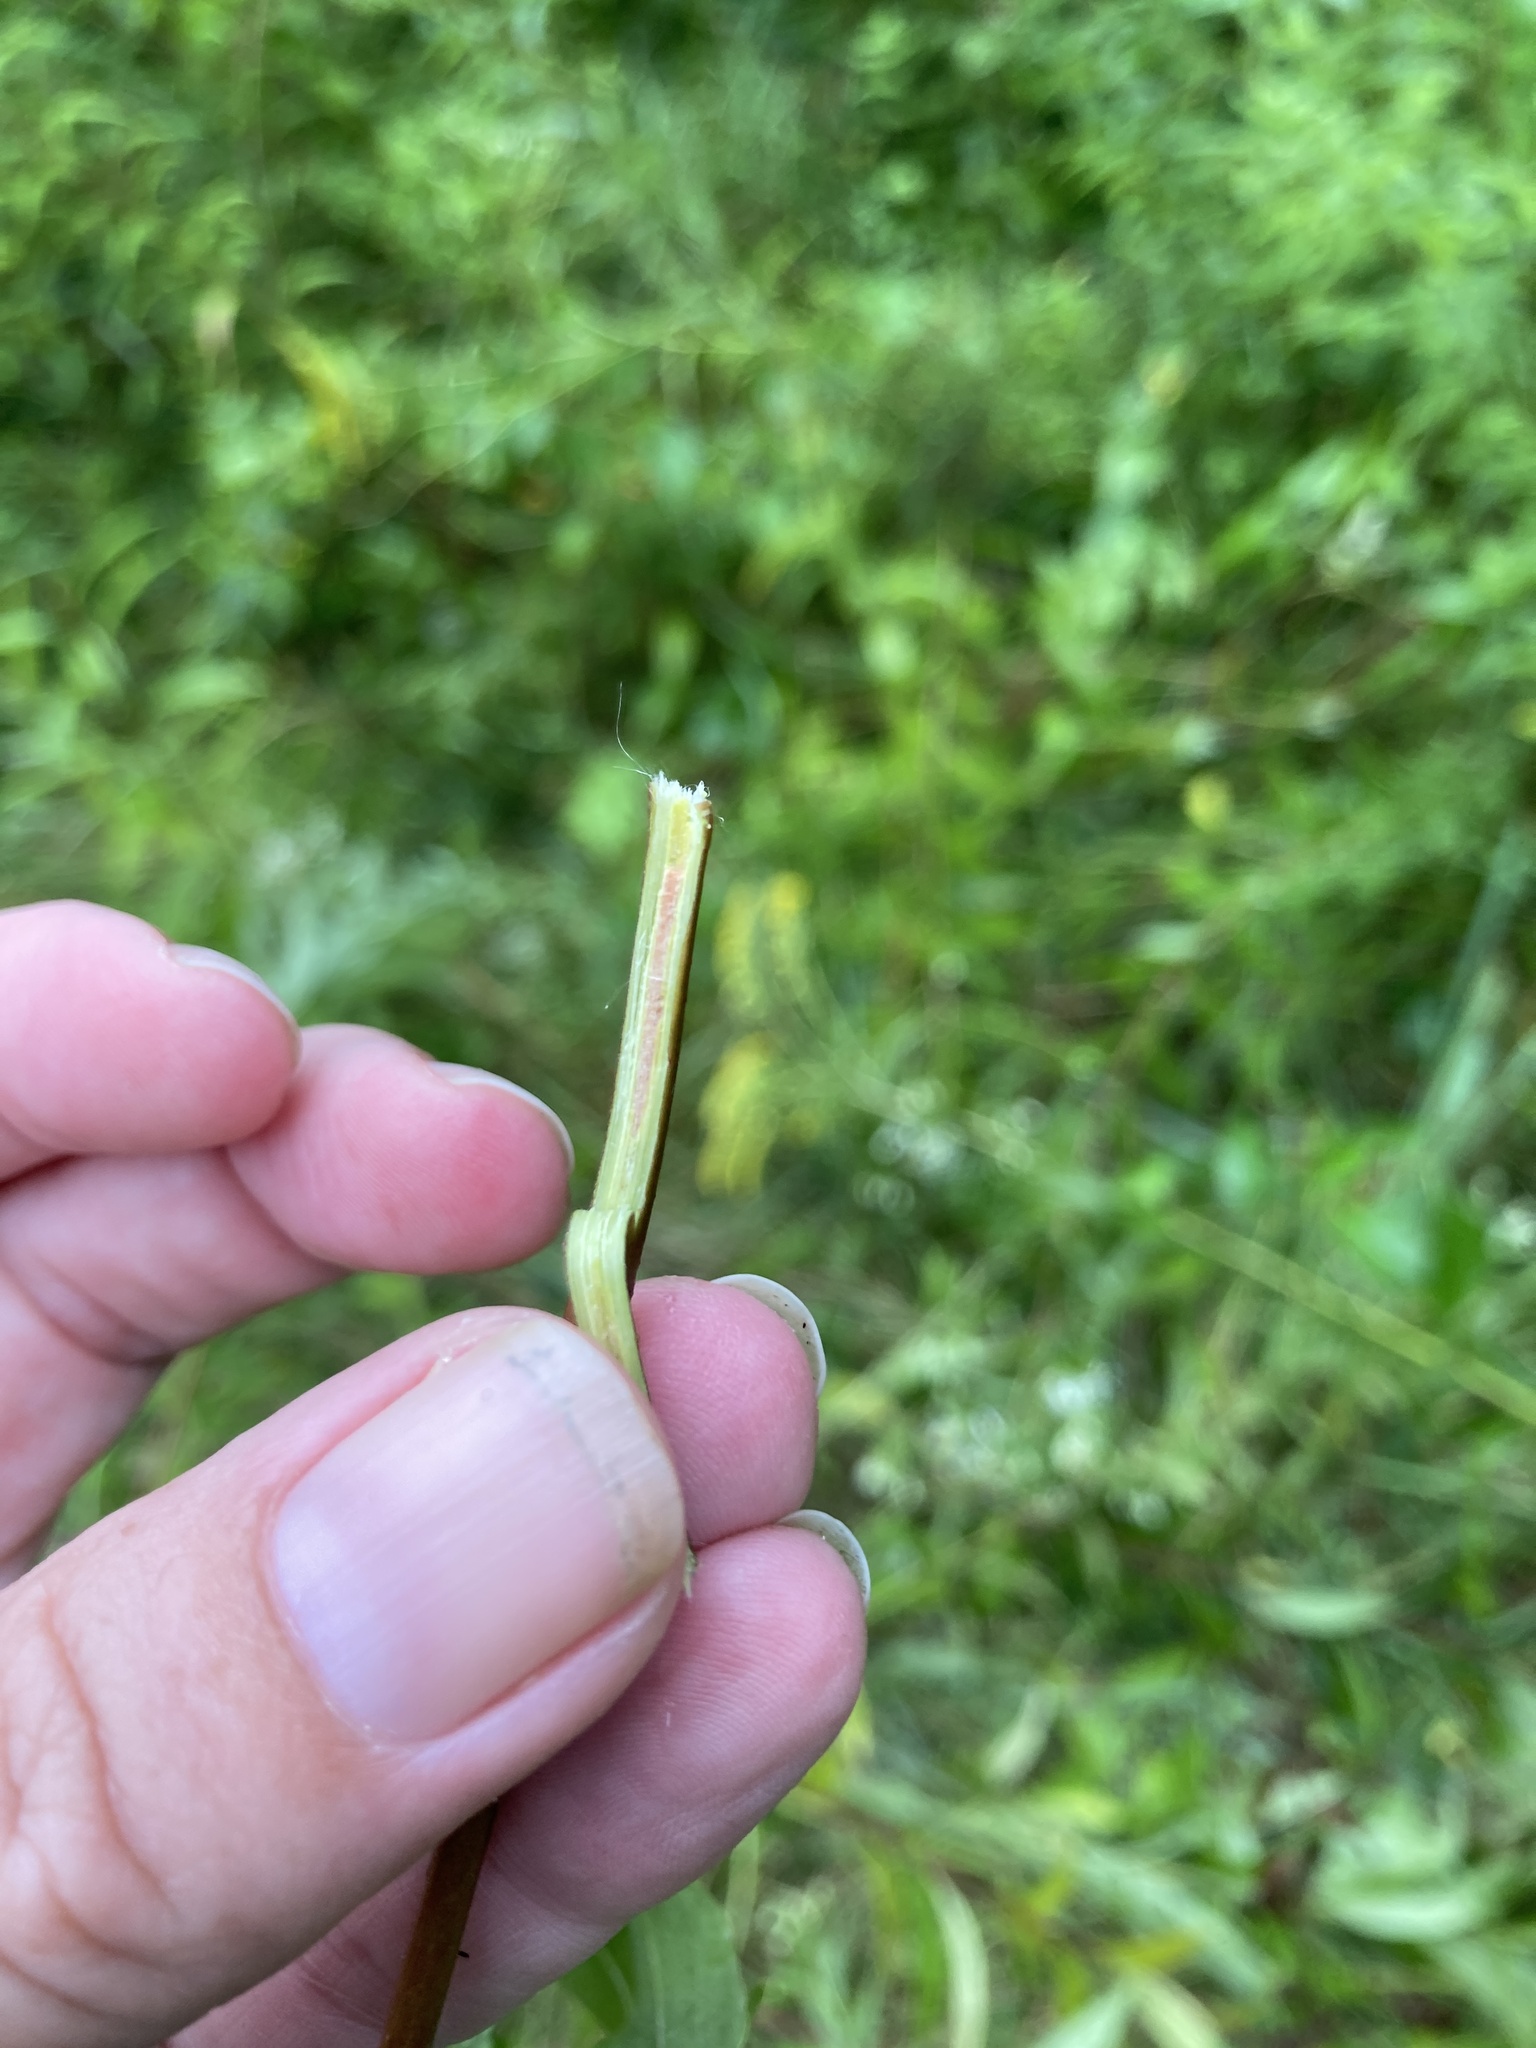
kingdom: Plantae
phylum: Tracheophyta
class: Magnoliopsida
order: Cornales
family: Cornaceae
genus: Cornus
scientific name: Cornus sericea
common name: Red-osier dogwood
